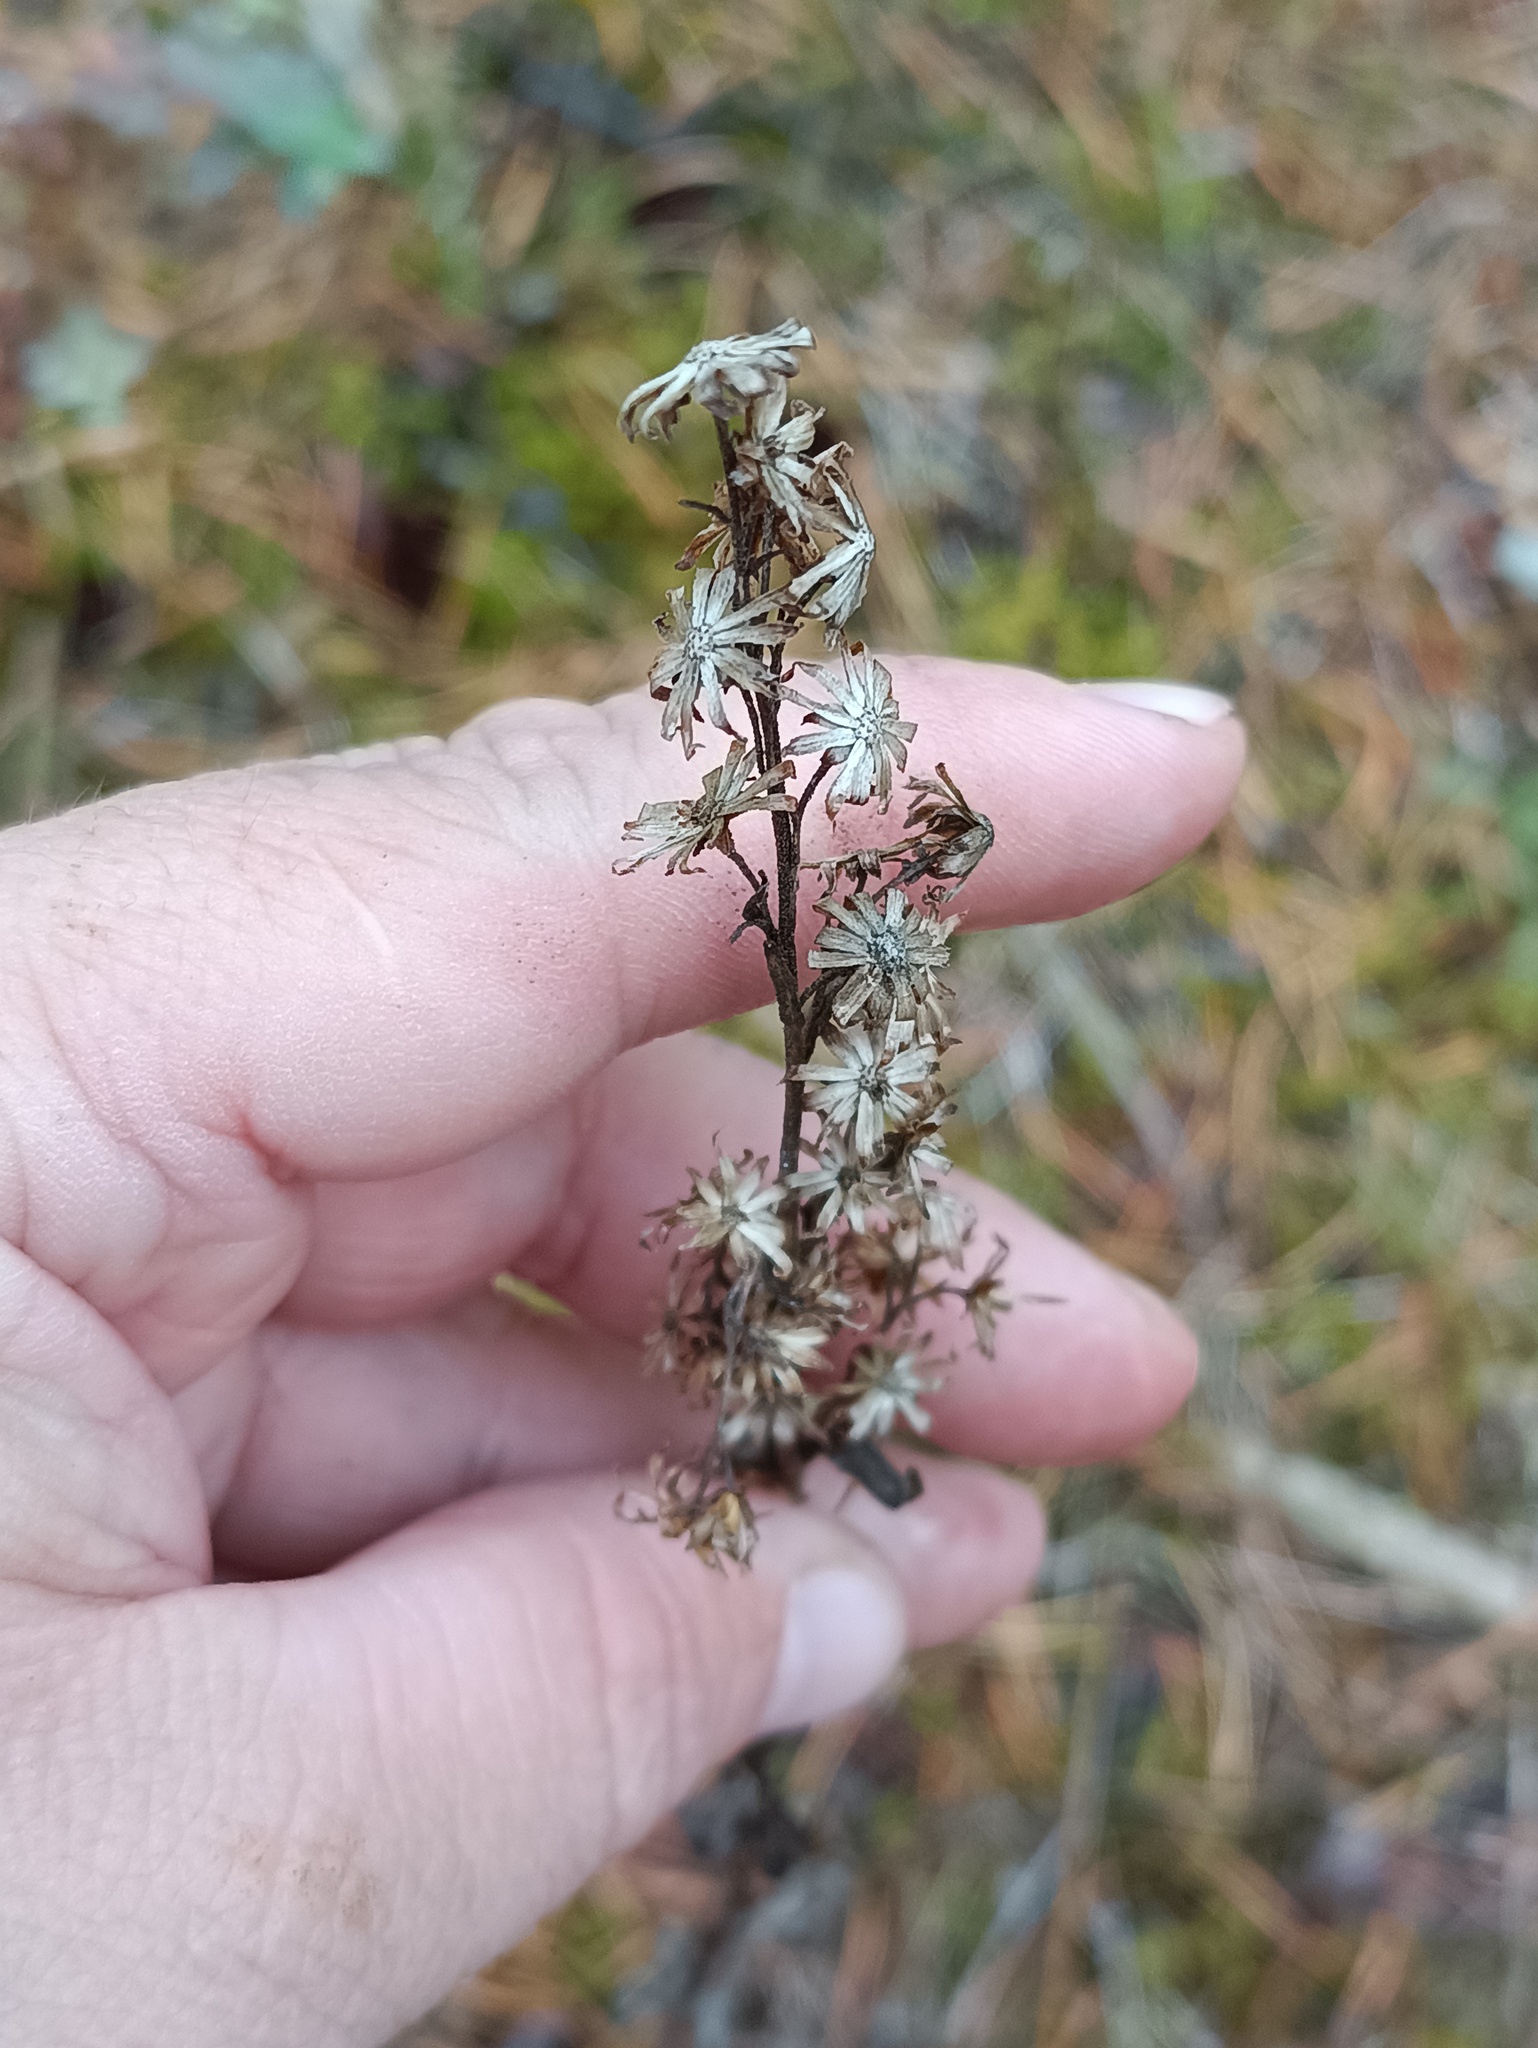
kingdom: Plantae
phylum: Tracheophyta
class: Magnoliopsida
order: Asterales
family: Asteraceae
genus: Solidago
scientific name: Solidago virgaurea
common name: Goldenrod
